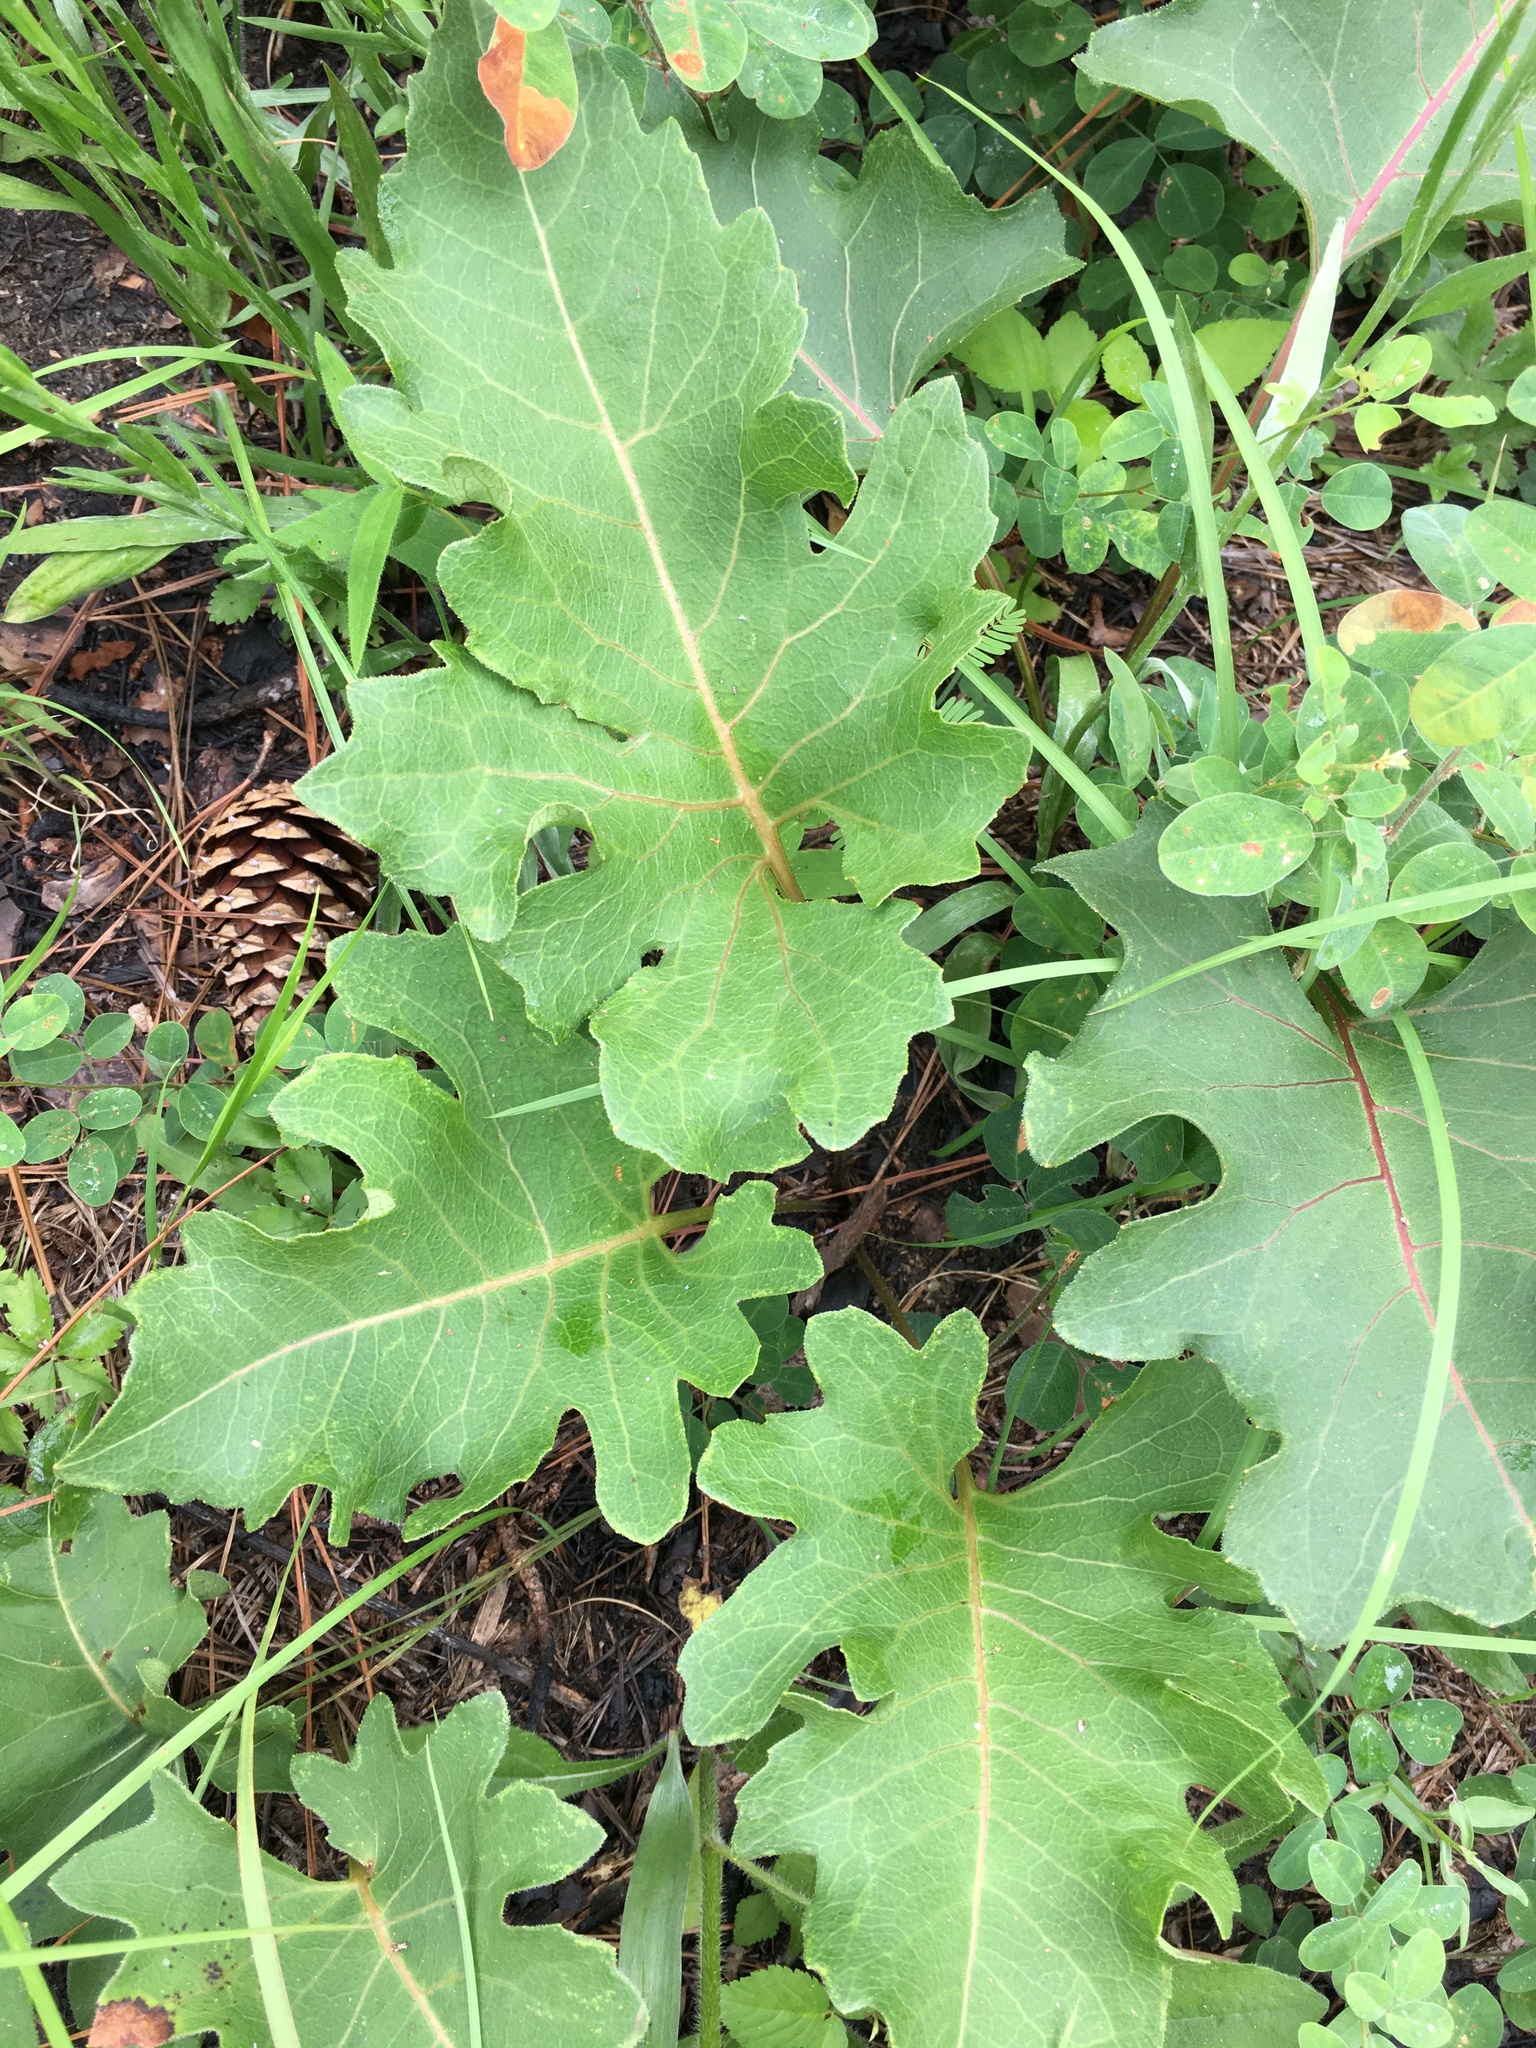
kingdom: Plantae
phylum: Tracheophyta
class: Magnoliopsida
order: Asterales
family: Asteraceae
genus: Silphium
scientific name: Silphium compositum
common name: Lesser basal-leaf rosinweed
